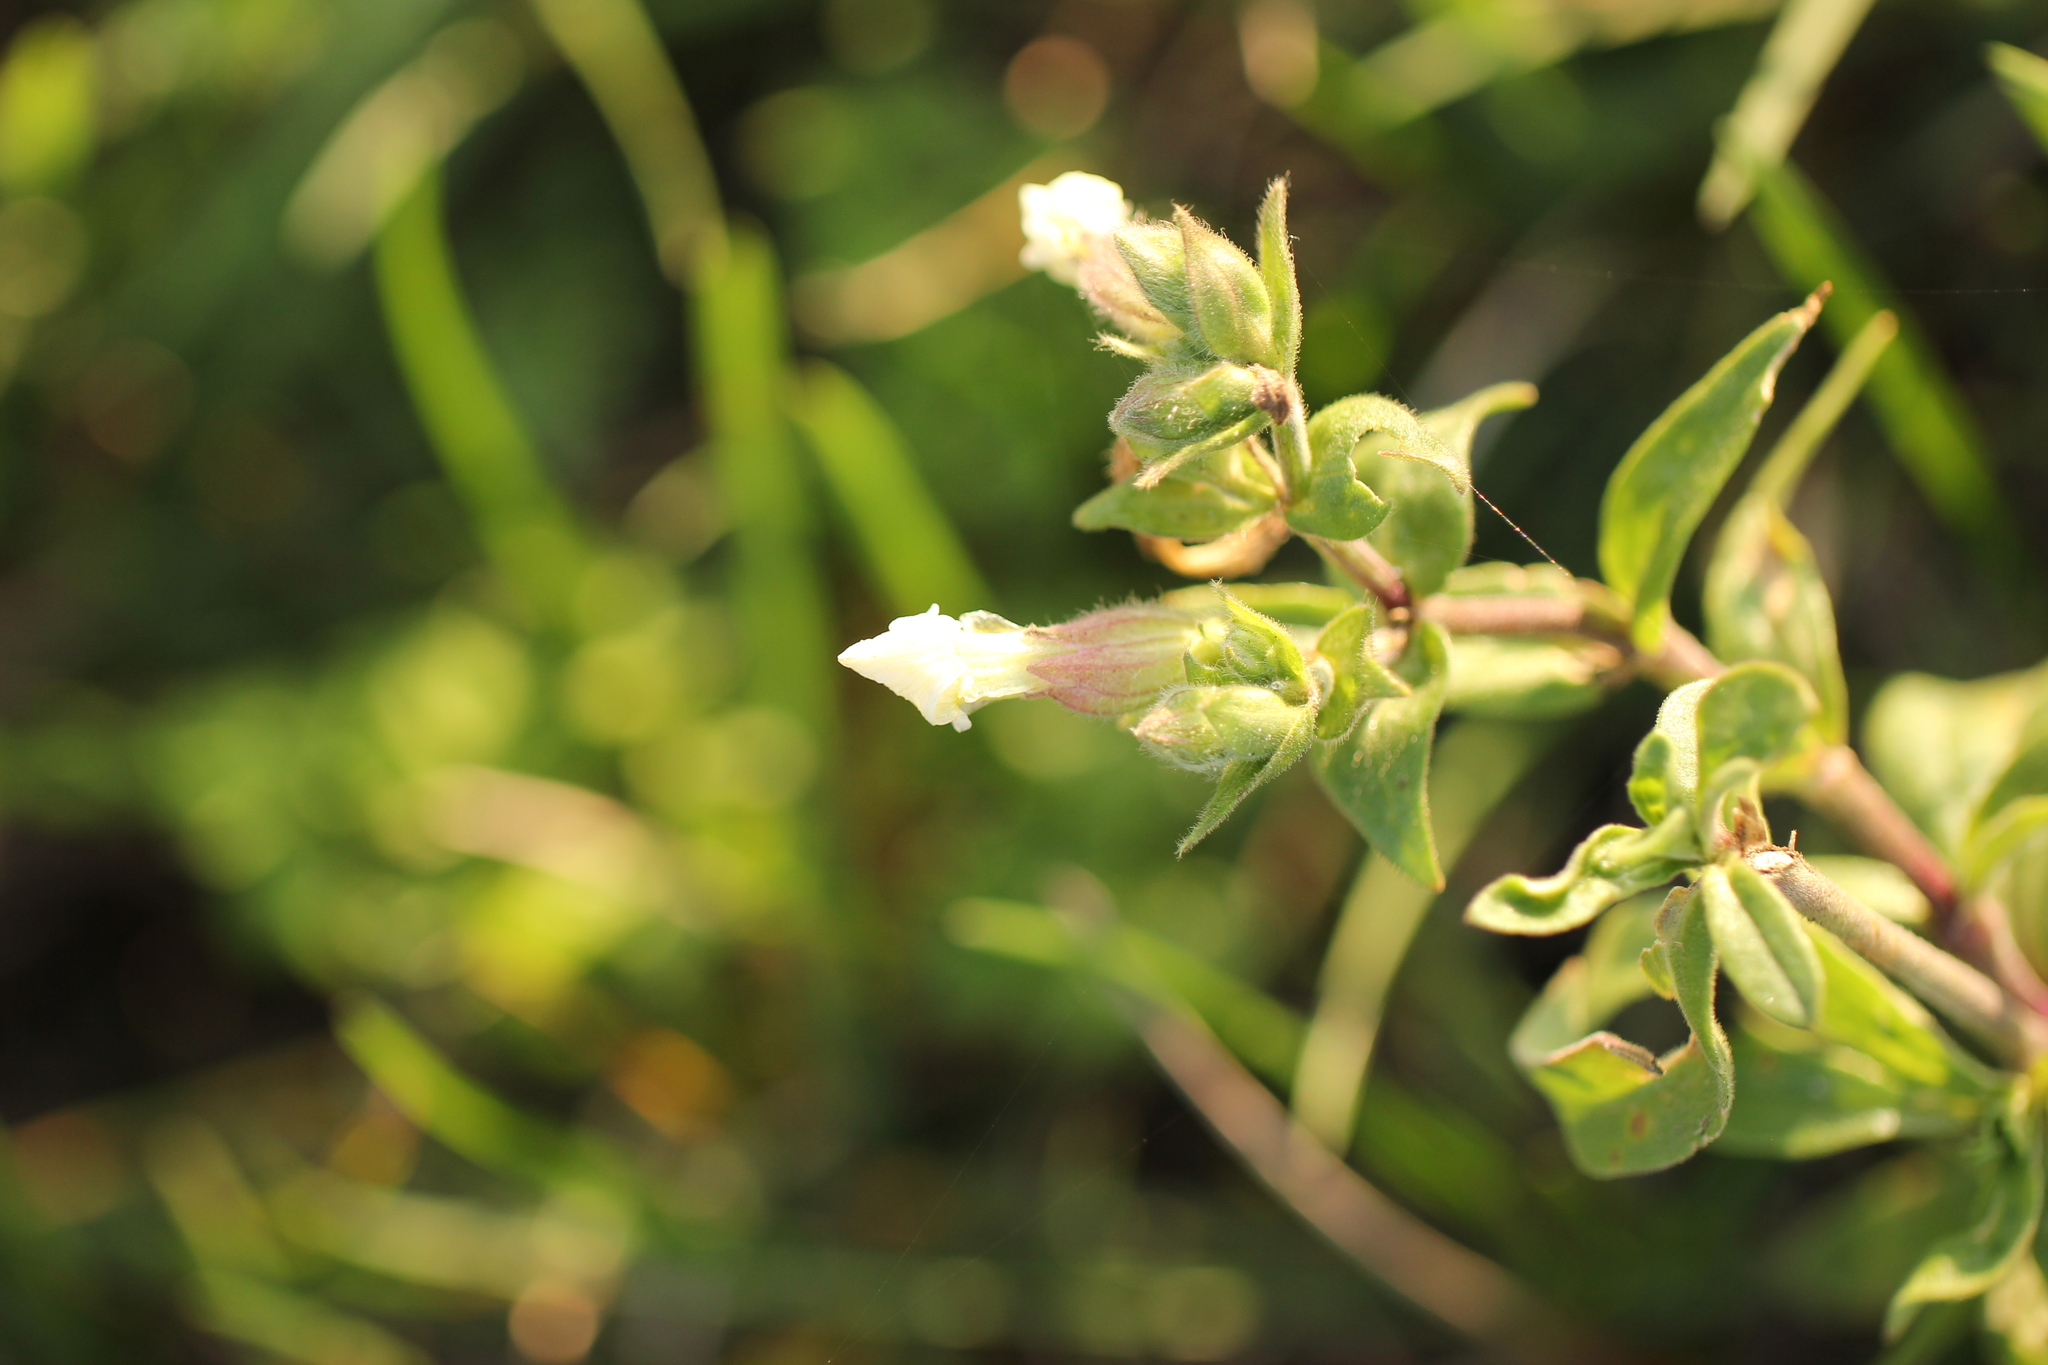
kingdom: Plantae
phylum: Tracheophyta
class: Magnoliopsida
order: Caryophyllales
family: Caryophyllaceae
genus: Silene
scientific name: Silene latifolia
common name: White campion
